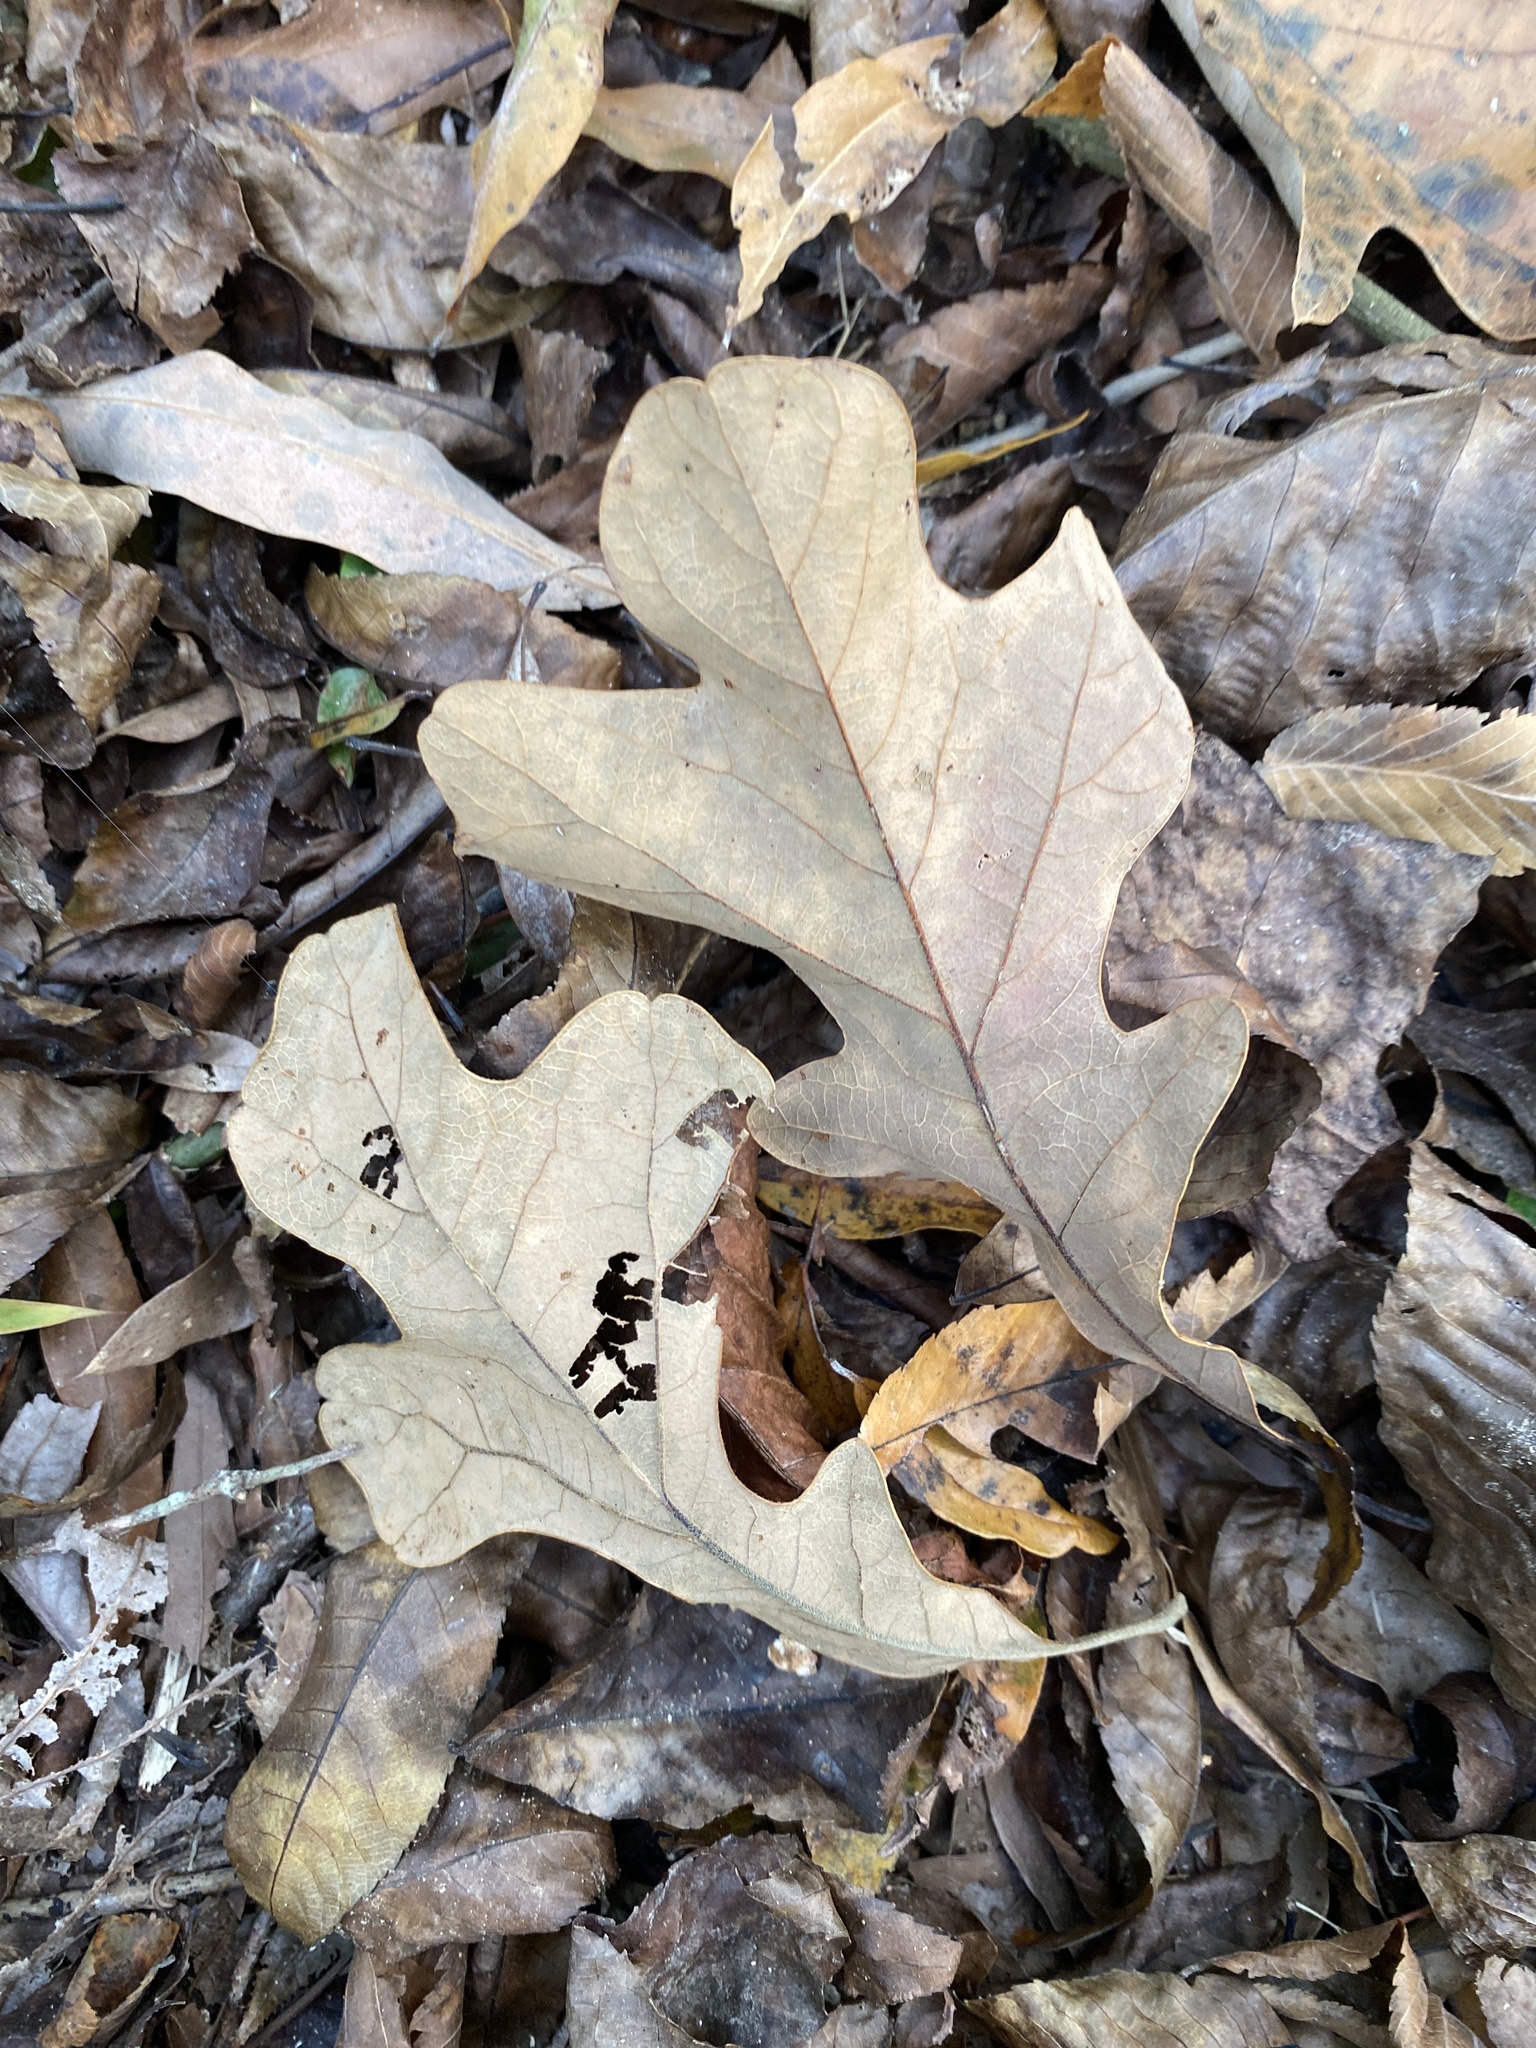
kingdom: Plantae
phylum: Tracheophyta
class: Magnoliopsida
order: Fagales
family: Fagaceae
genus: Quercus
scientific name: Quercus stellata
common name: Post oak
